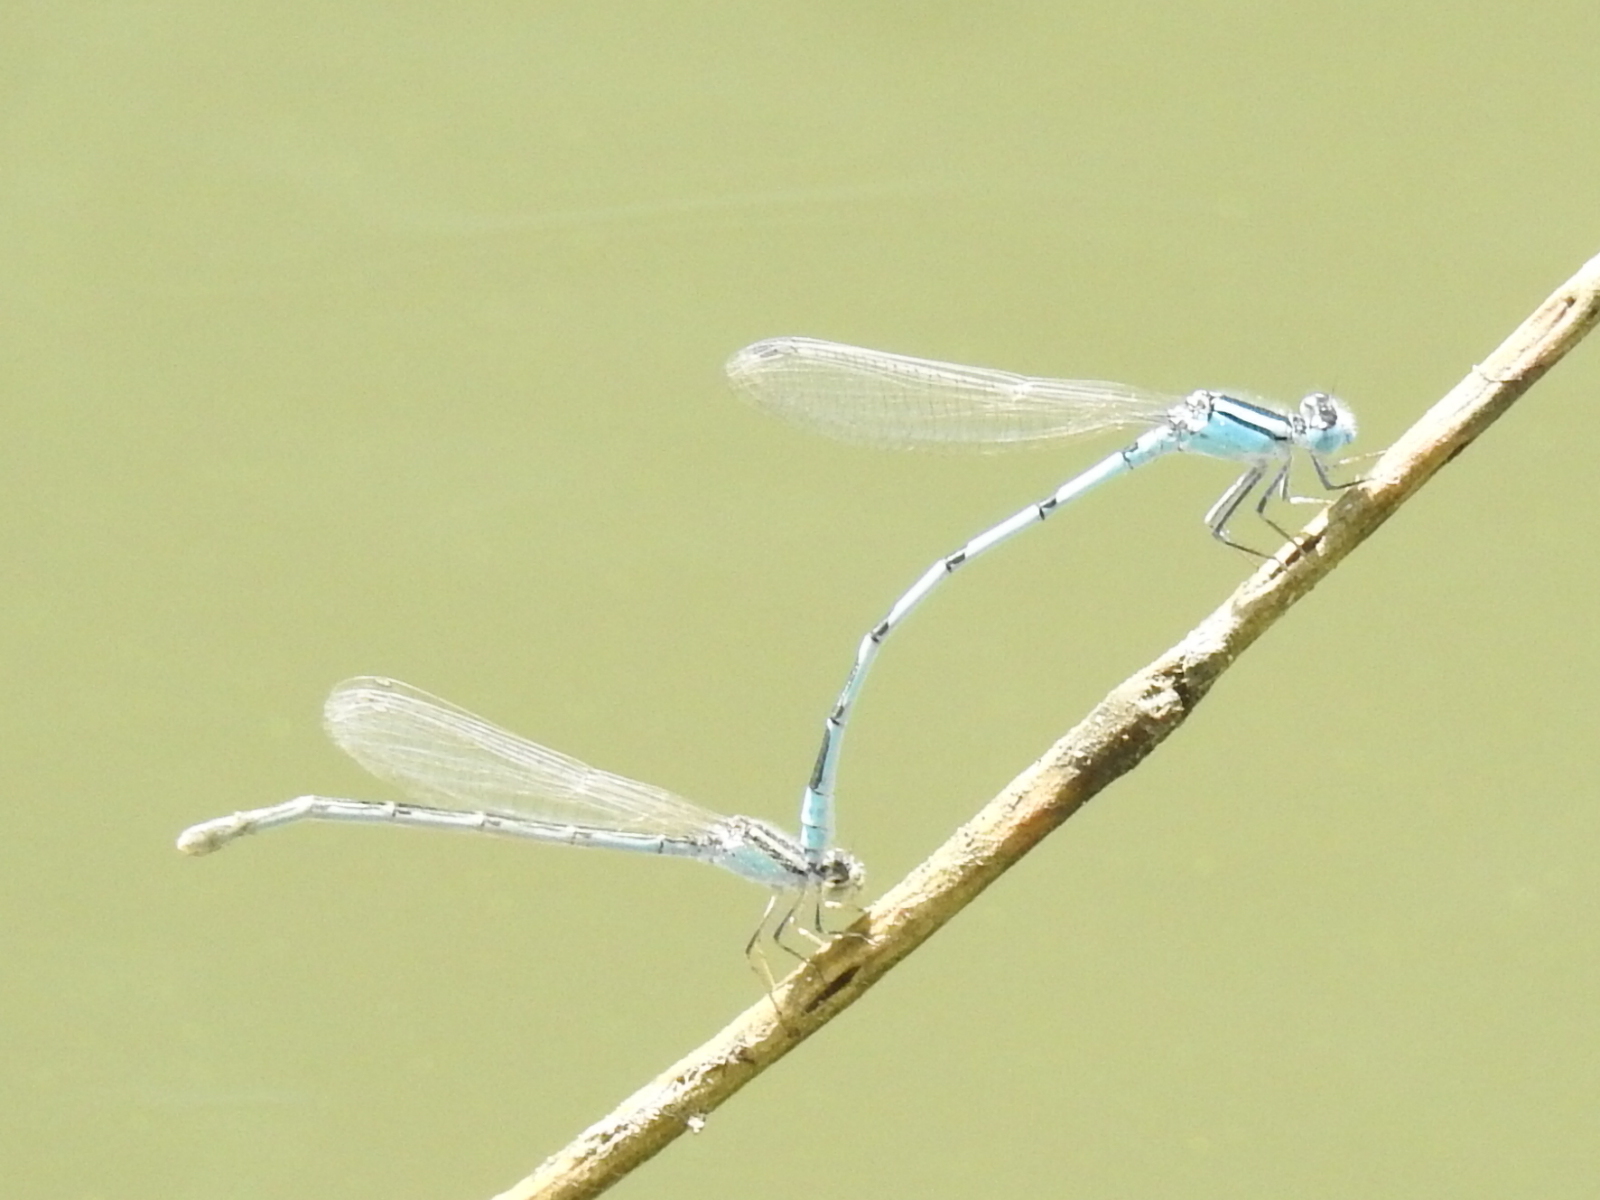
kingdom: Animalia
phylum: Arthropoda
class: Insecta
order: Odonata
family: Coenagrionidae
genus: Enallagma
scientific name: Enallagma civile
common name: Damselfly
